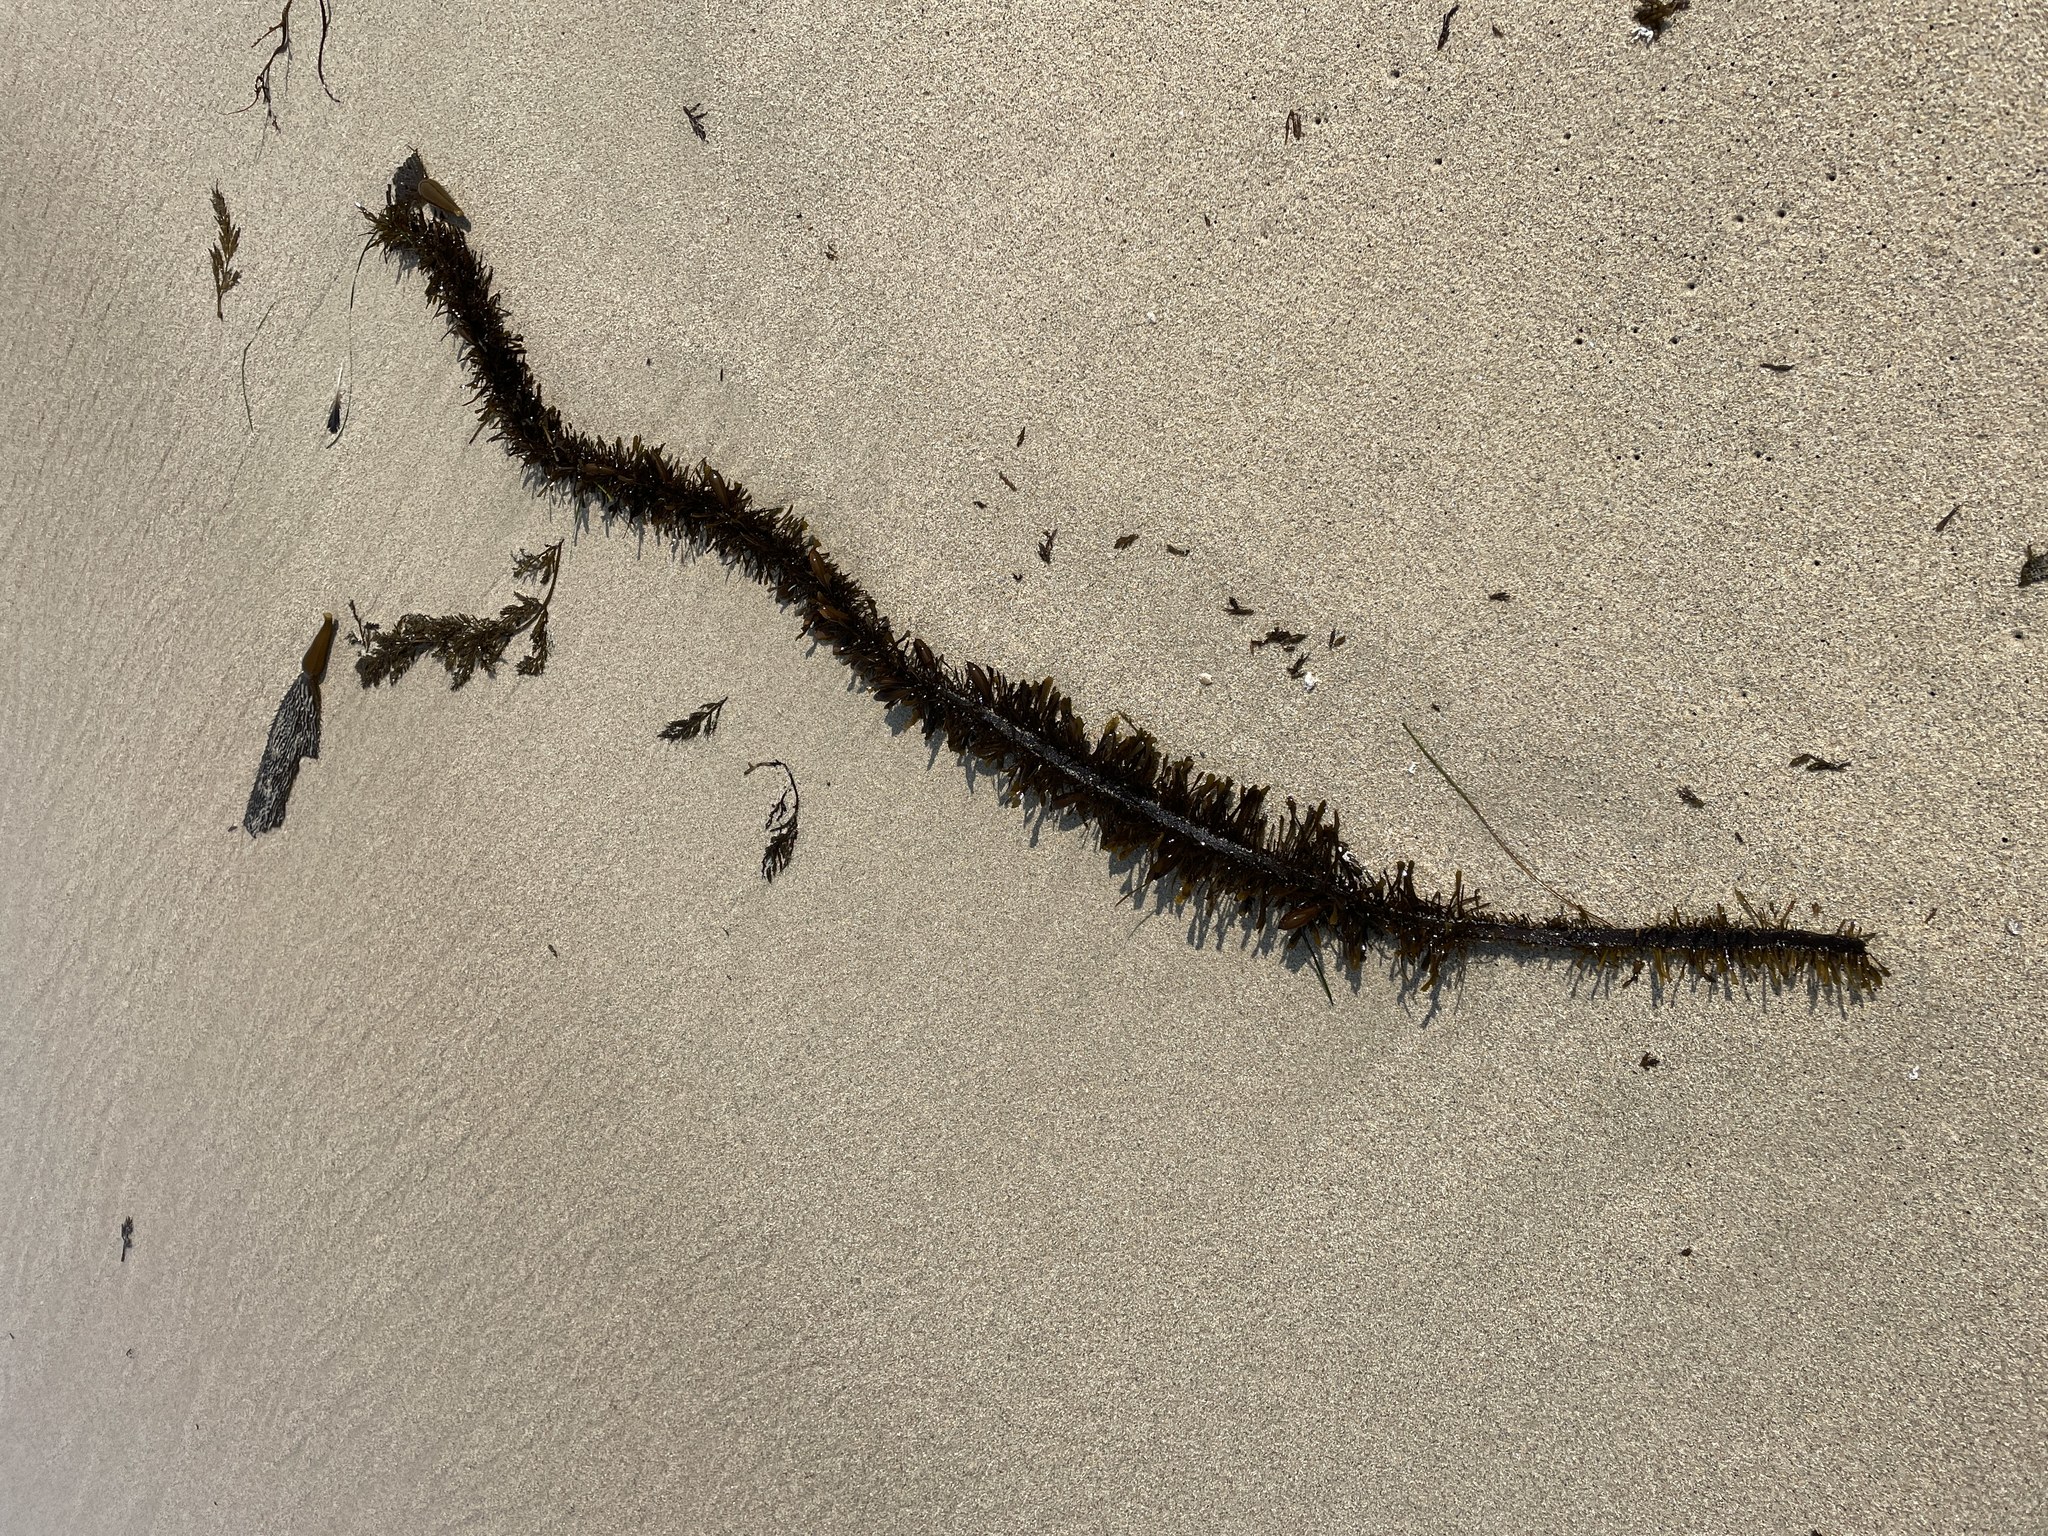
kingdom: Chromista
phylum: Ochrophyta
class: Phaeophyceae
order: Laminariales
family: Lessoniaceae
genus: Egregia
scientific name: Egregia menziesii
